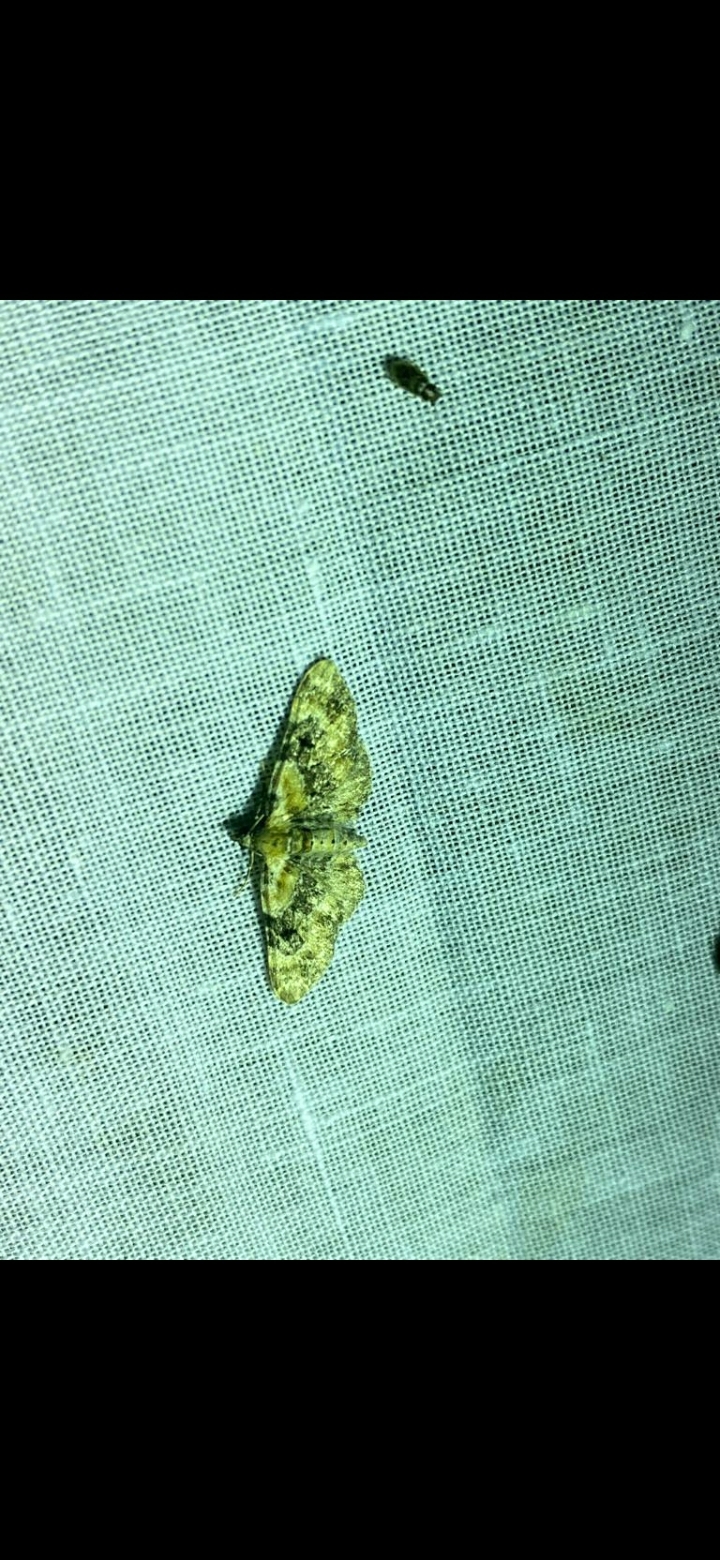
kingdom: Animalia
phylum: Arthropoda
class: Insecta
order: Lepidoptera
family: Geometridae
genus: Eupithecia
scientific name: Eupithecia pulchellata
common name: Foxglove pug
